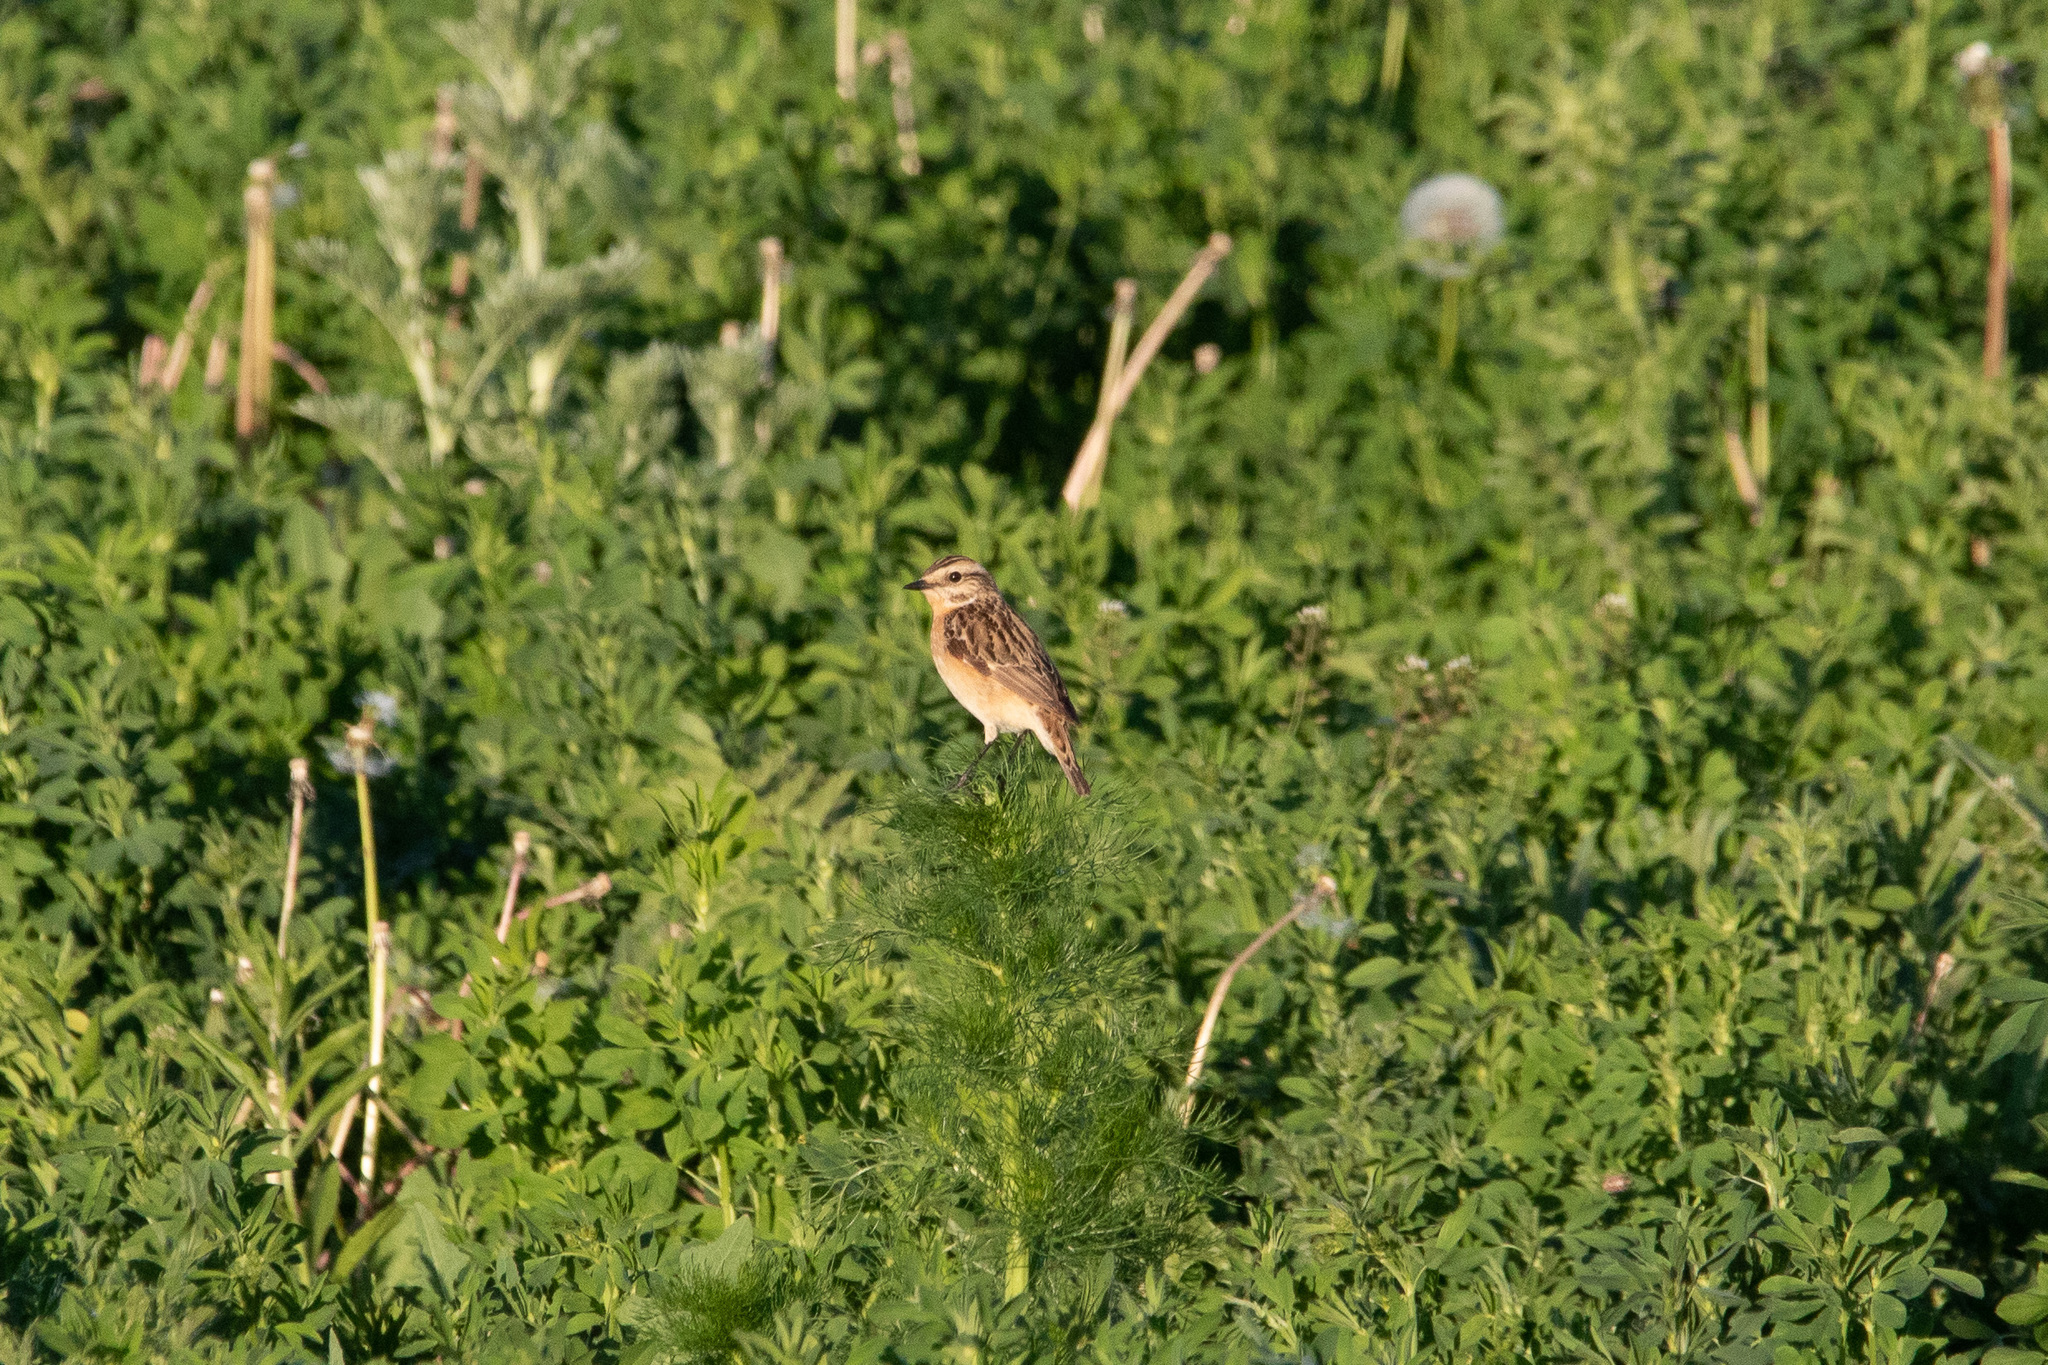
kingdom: Animalia
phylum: Chordata
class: Aves
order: Passeriformes
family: Muscicapidae
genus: Saxicola
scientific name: Saxicola rubetra
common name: Whinchat
